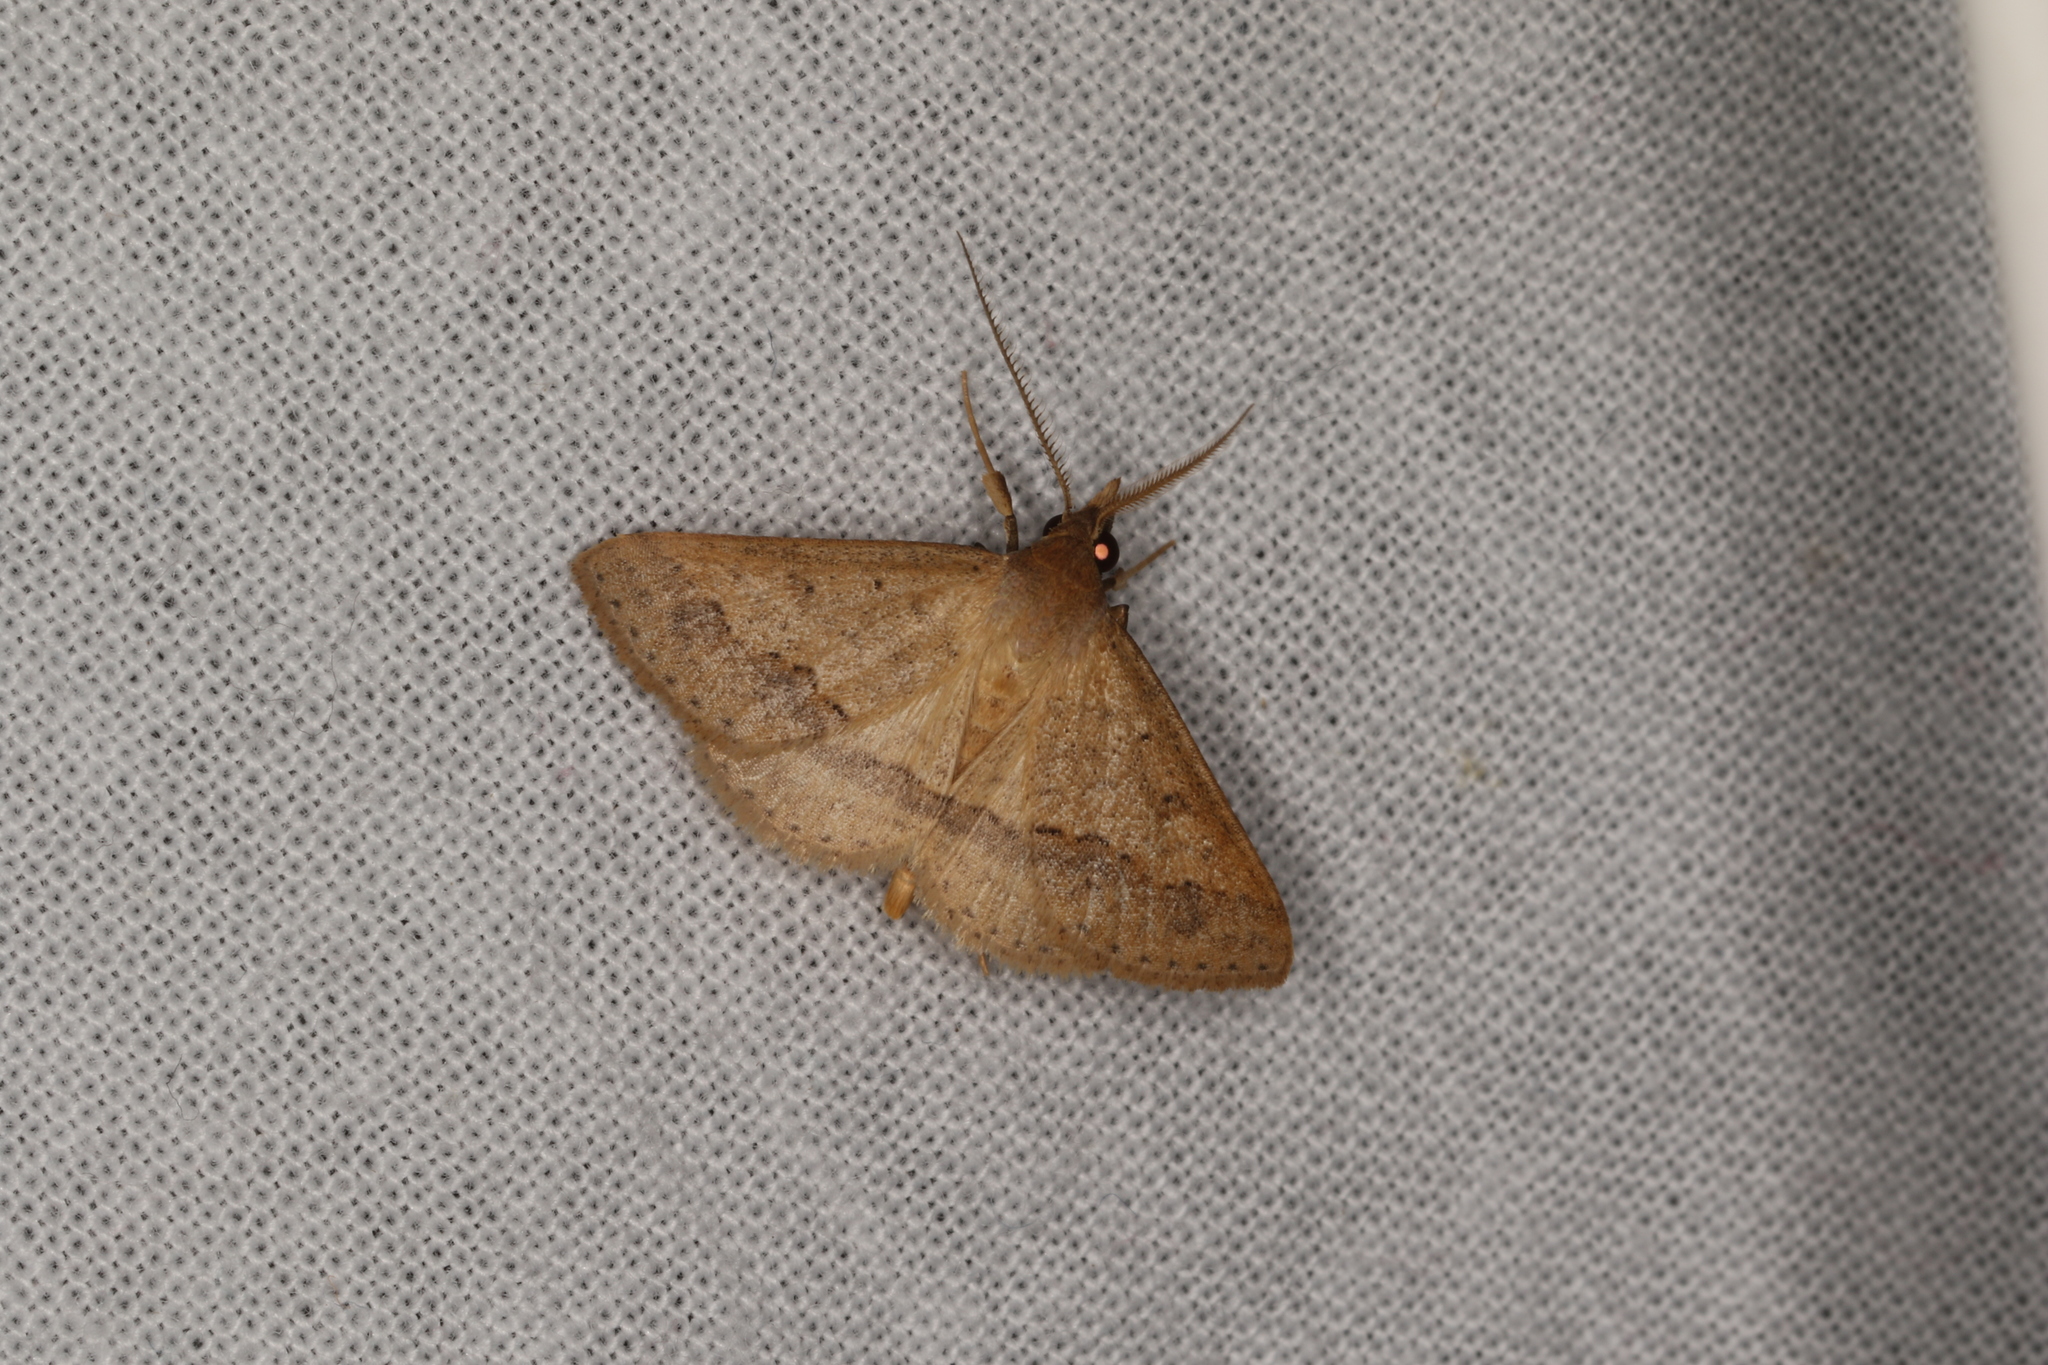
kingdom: Animalia
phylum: Arthropoda
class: Insecta
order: Lepidoptera
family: Erebidae
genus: Gesonia
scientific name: Gesonia obeditalis
